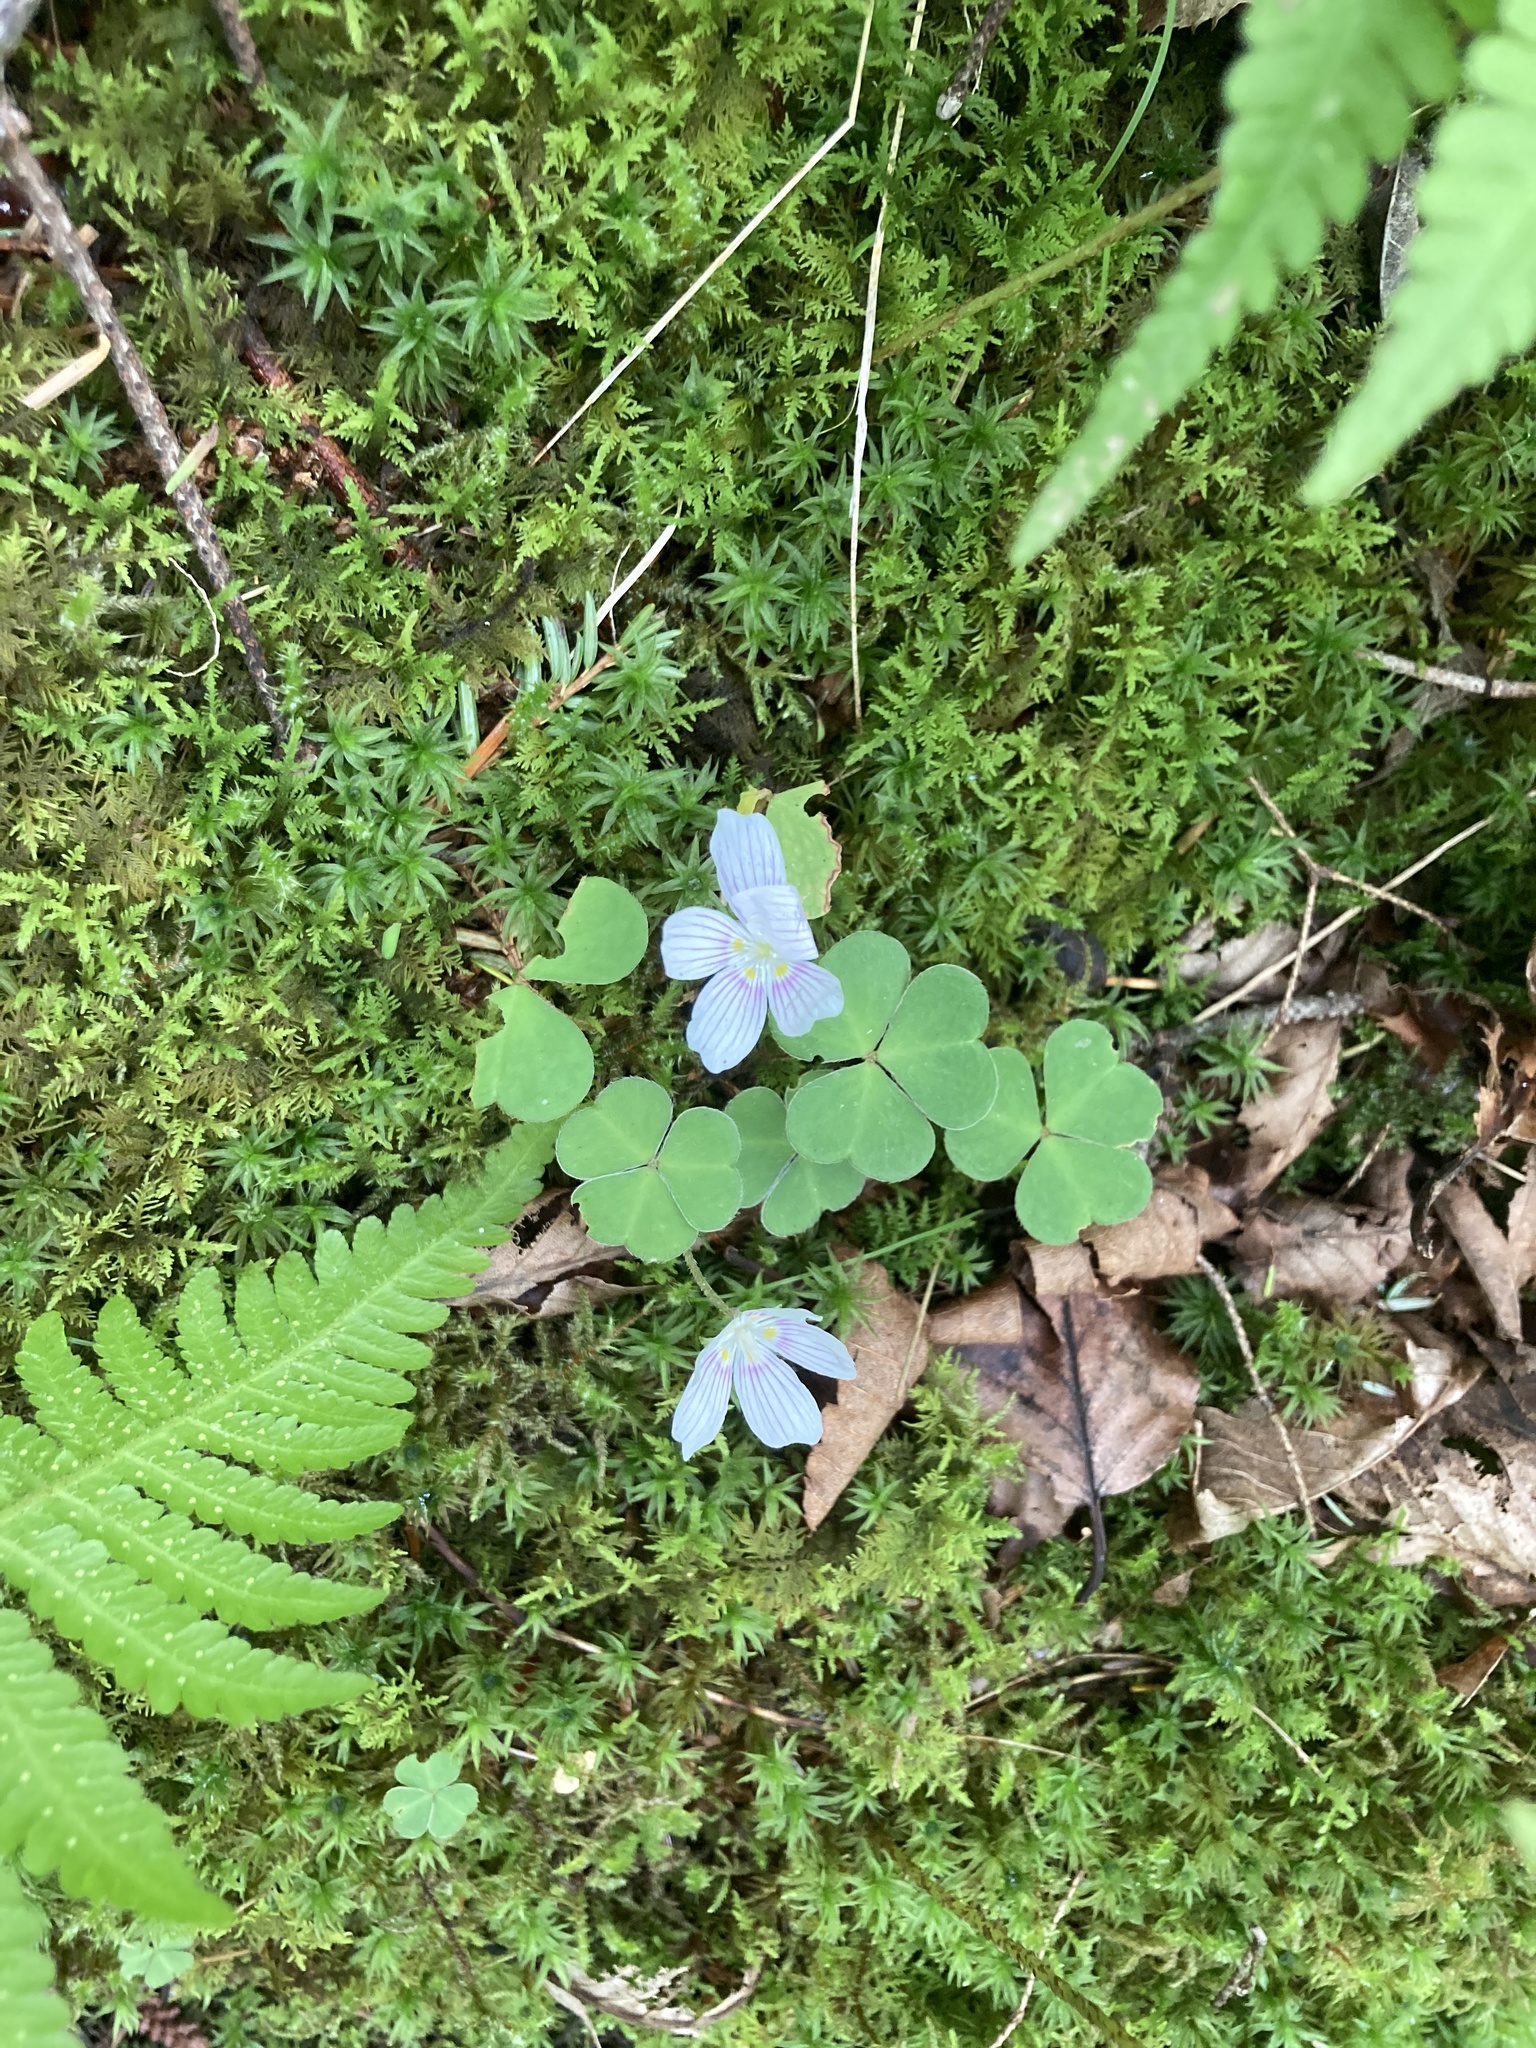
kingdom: Plantae
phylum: Tracheophyta
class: Magnoliopsida
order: Oxalidales
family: Oxalidaceae
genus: Oxalis
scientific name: Oxalis montana
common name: American wood-sorrel
